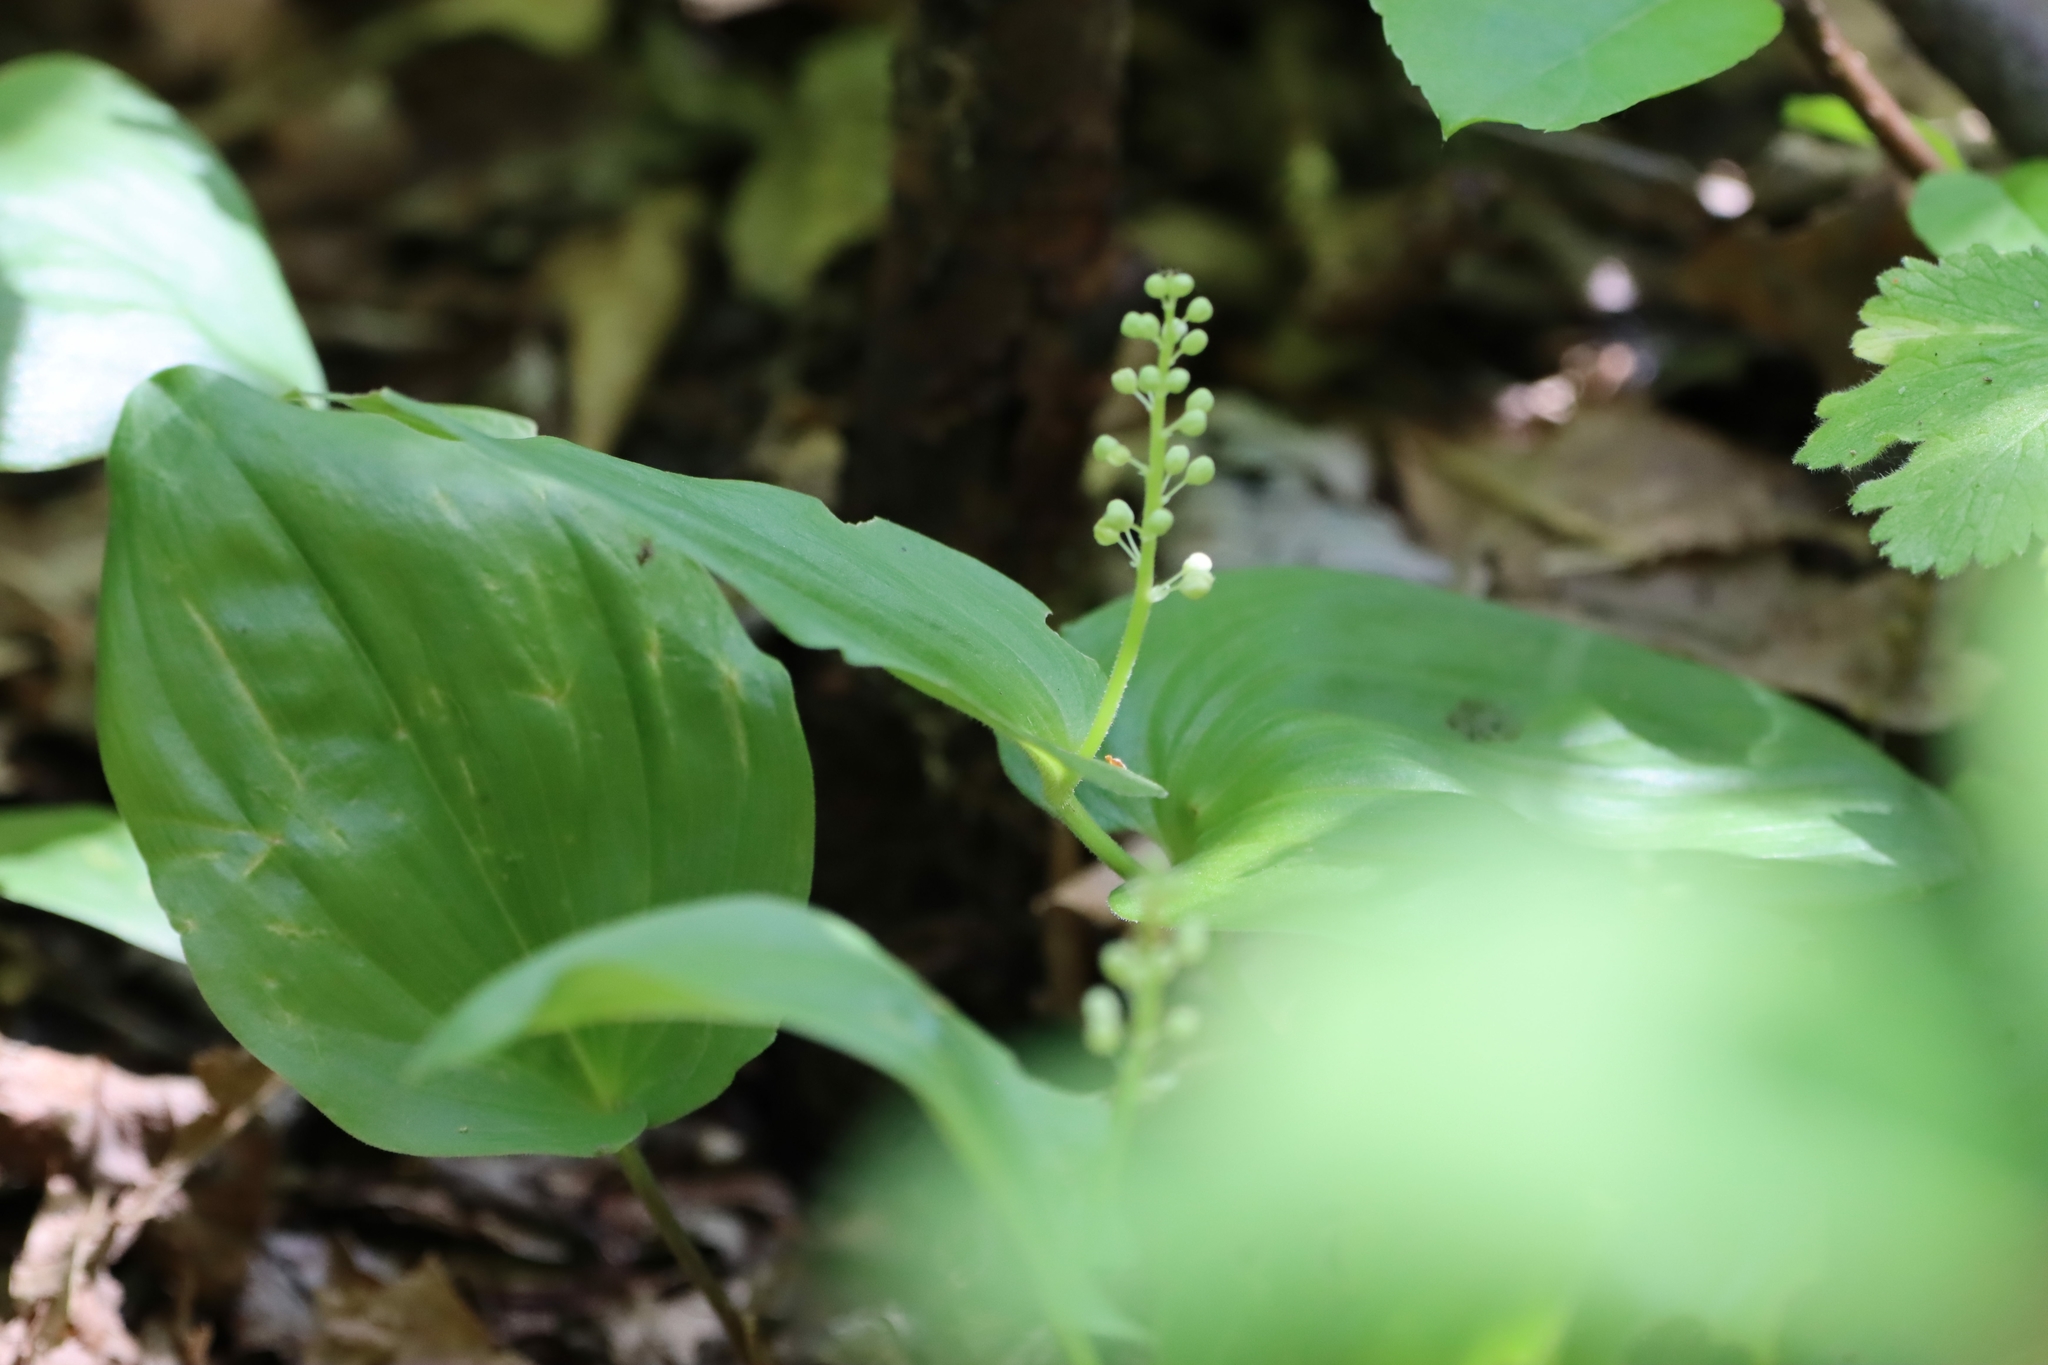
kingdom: Plantae
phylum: Tracheophyta
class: Liliopsida
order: Asparagales
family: Asparagaceae
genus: Maianthemum
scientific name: Maianthemum canadense
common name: False lily-of-the-valley
